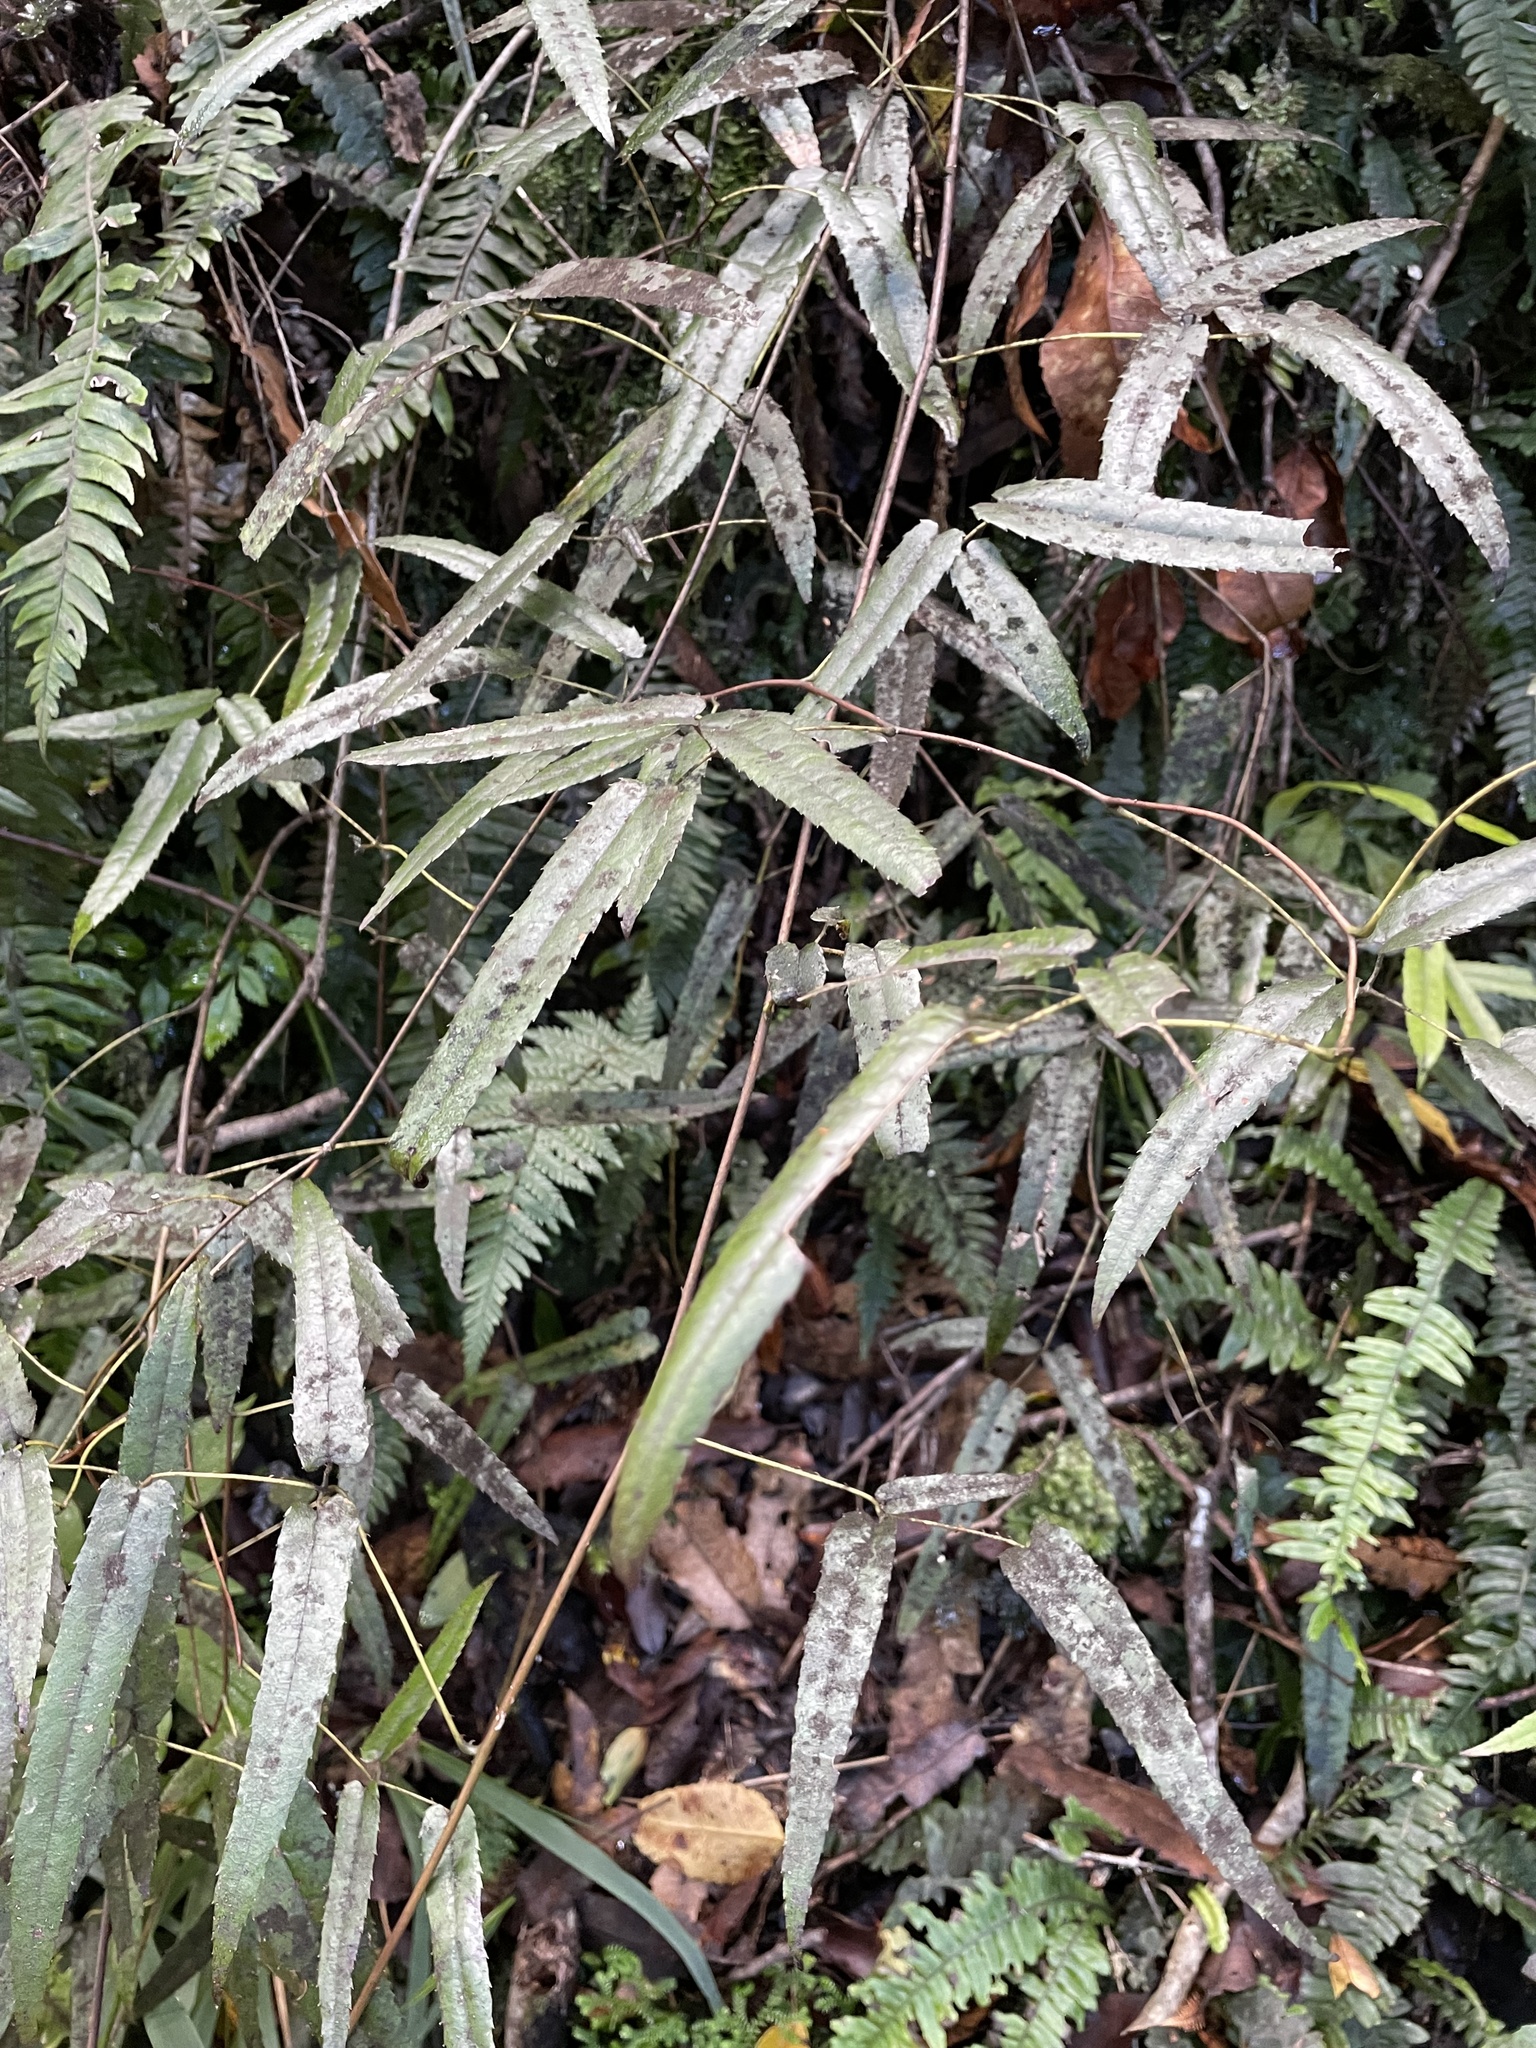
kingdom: Plantae
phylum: Tracheophyta
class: Magnoliopsida
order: Rosales
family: Rosaceae
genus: Rubus
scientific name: Rubus cissoides
